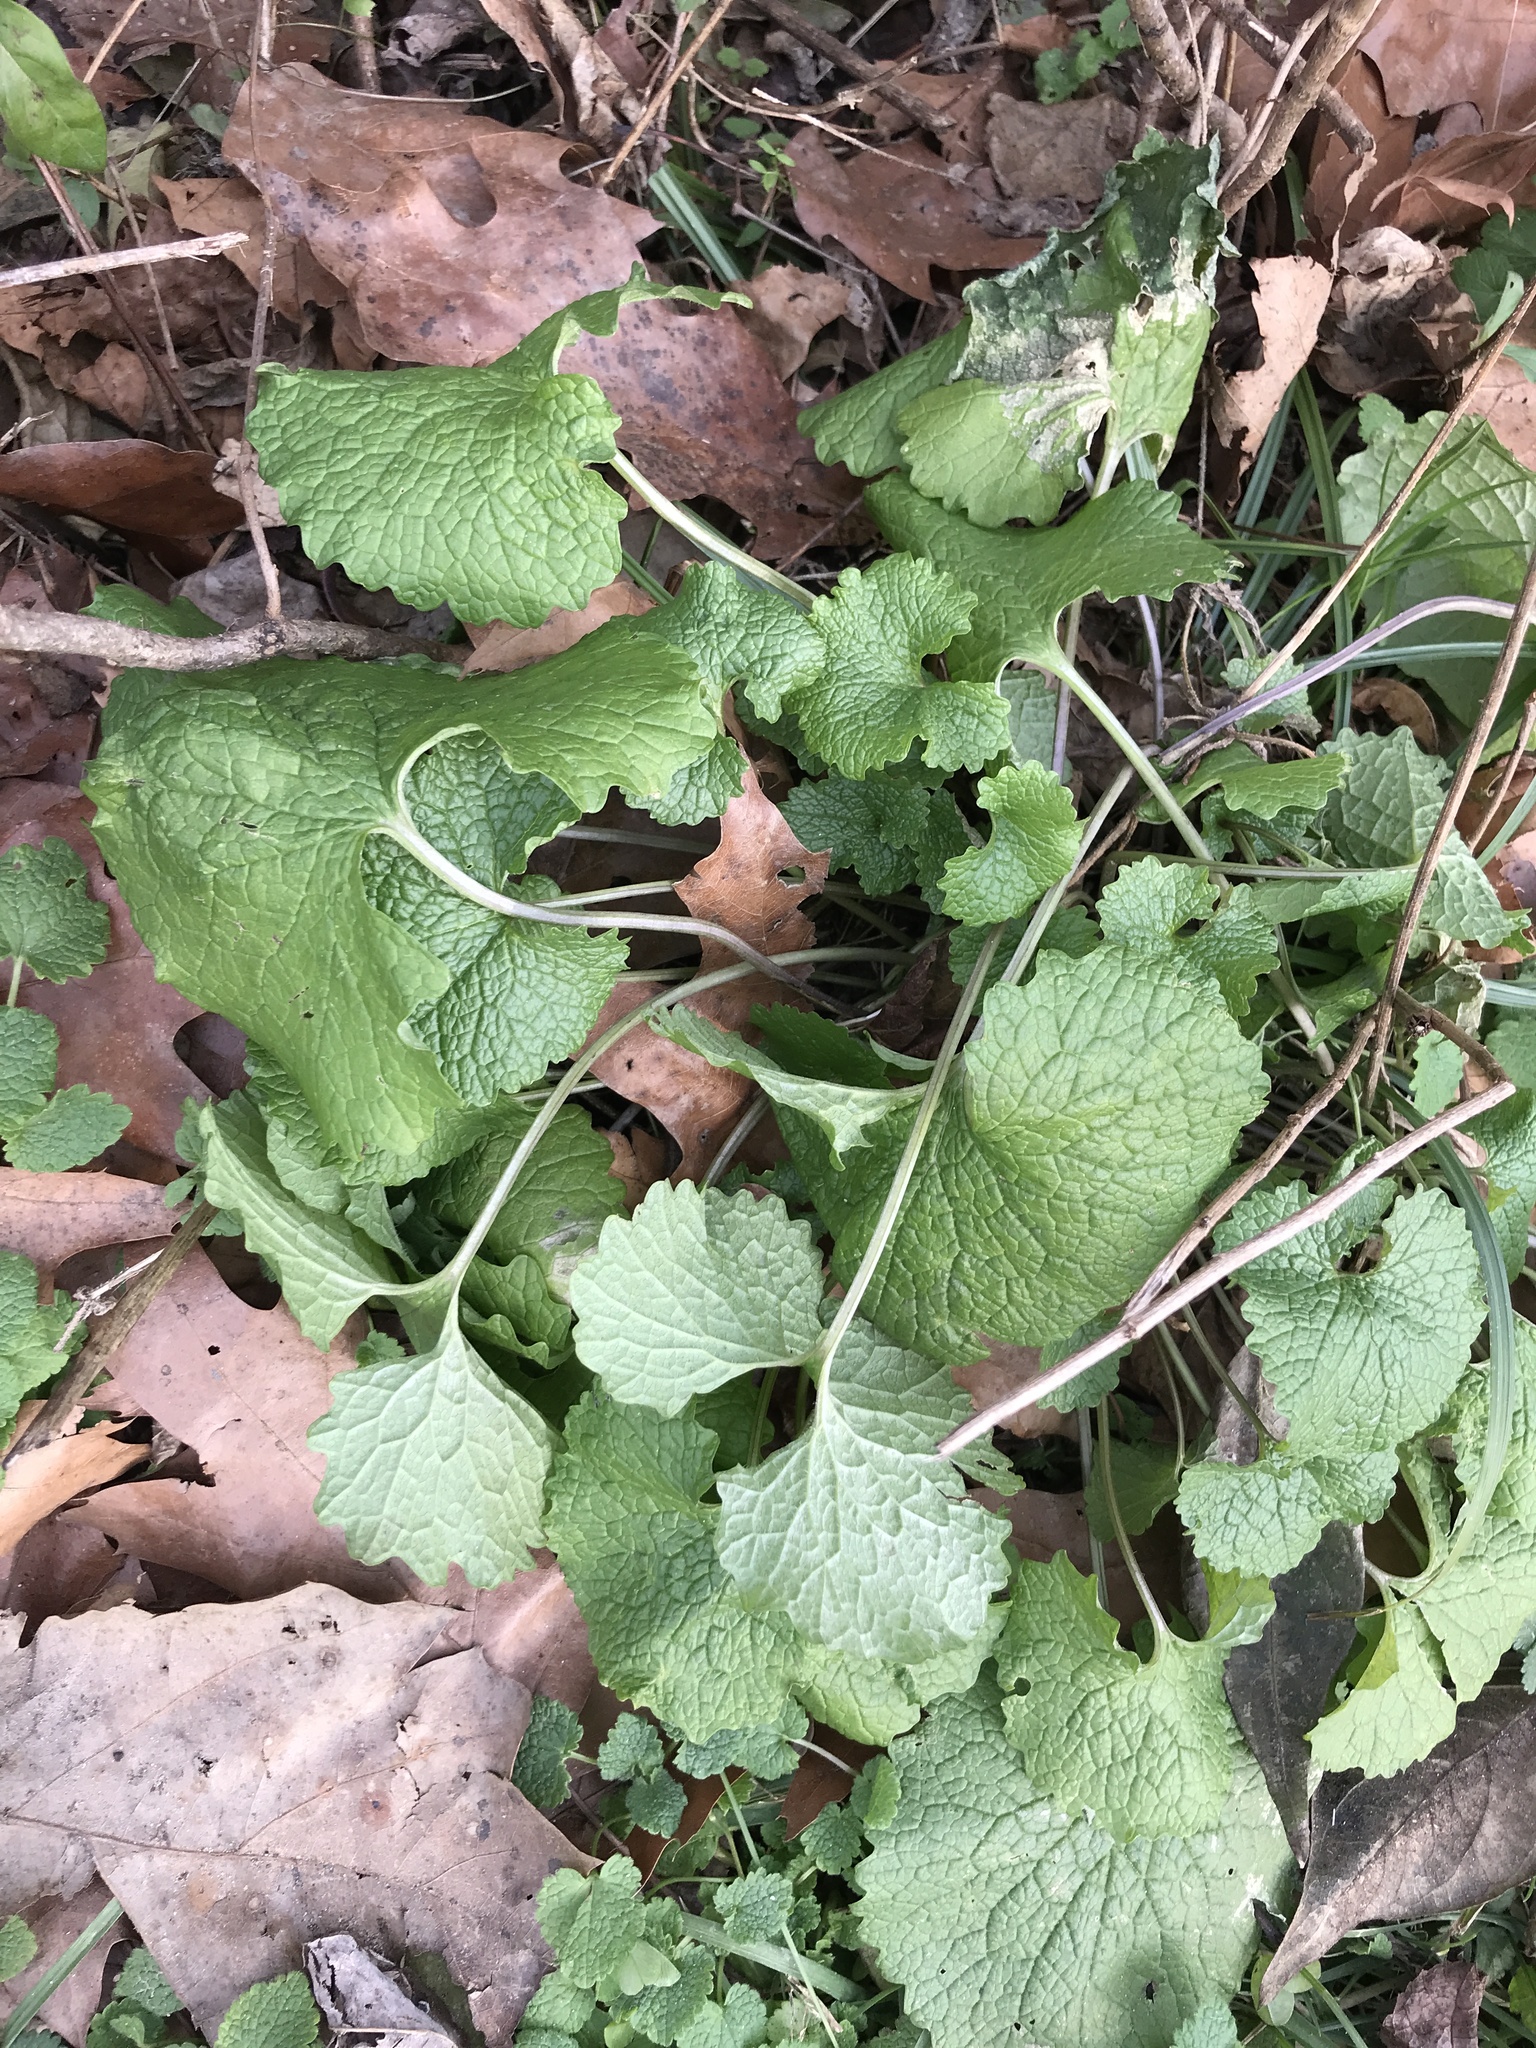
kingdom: Plantae
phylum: Tracheophyta
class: Magnoliopsida
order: Brassicales
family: Brassicaceae
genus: Alliaria
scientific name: Alliaria petiolata
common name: Garlic mustard
